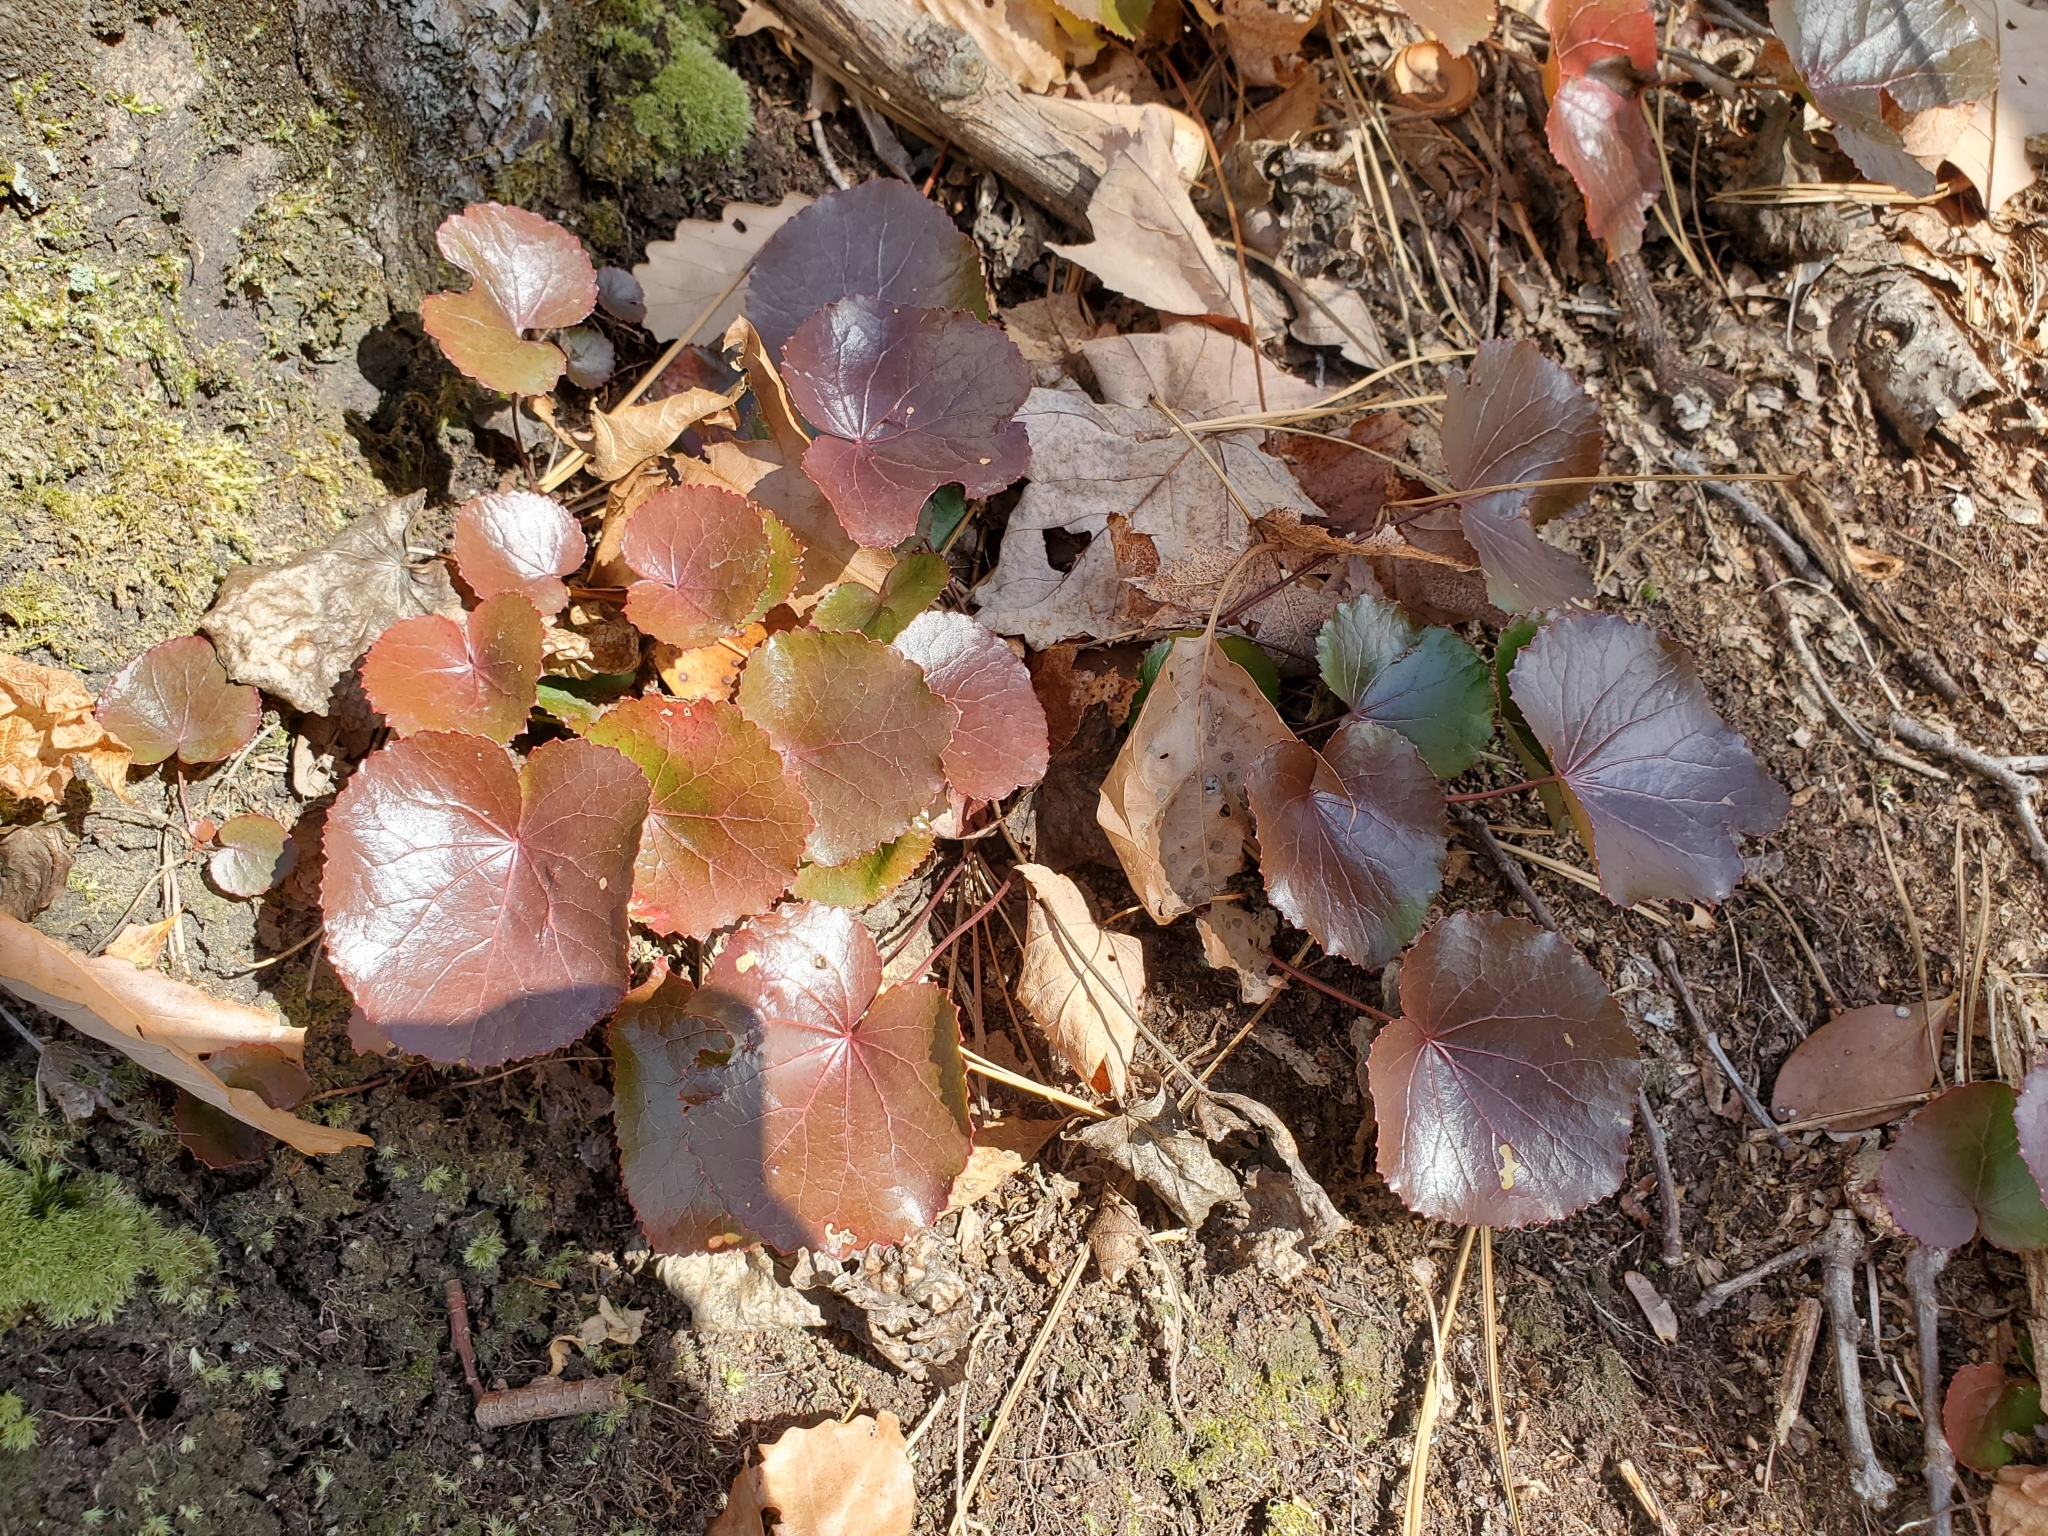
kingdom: Plantae
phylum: Tracheophyta
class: Magnoliopsida
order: Ericales
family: Diapensiaceae
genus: Galax
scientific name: Galax urceolata
